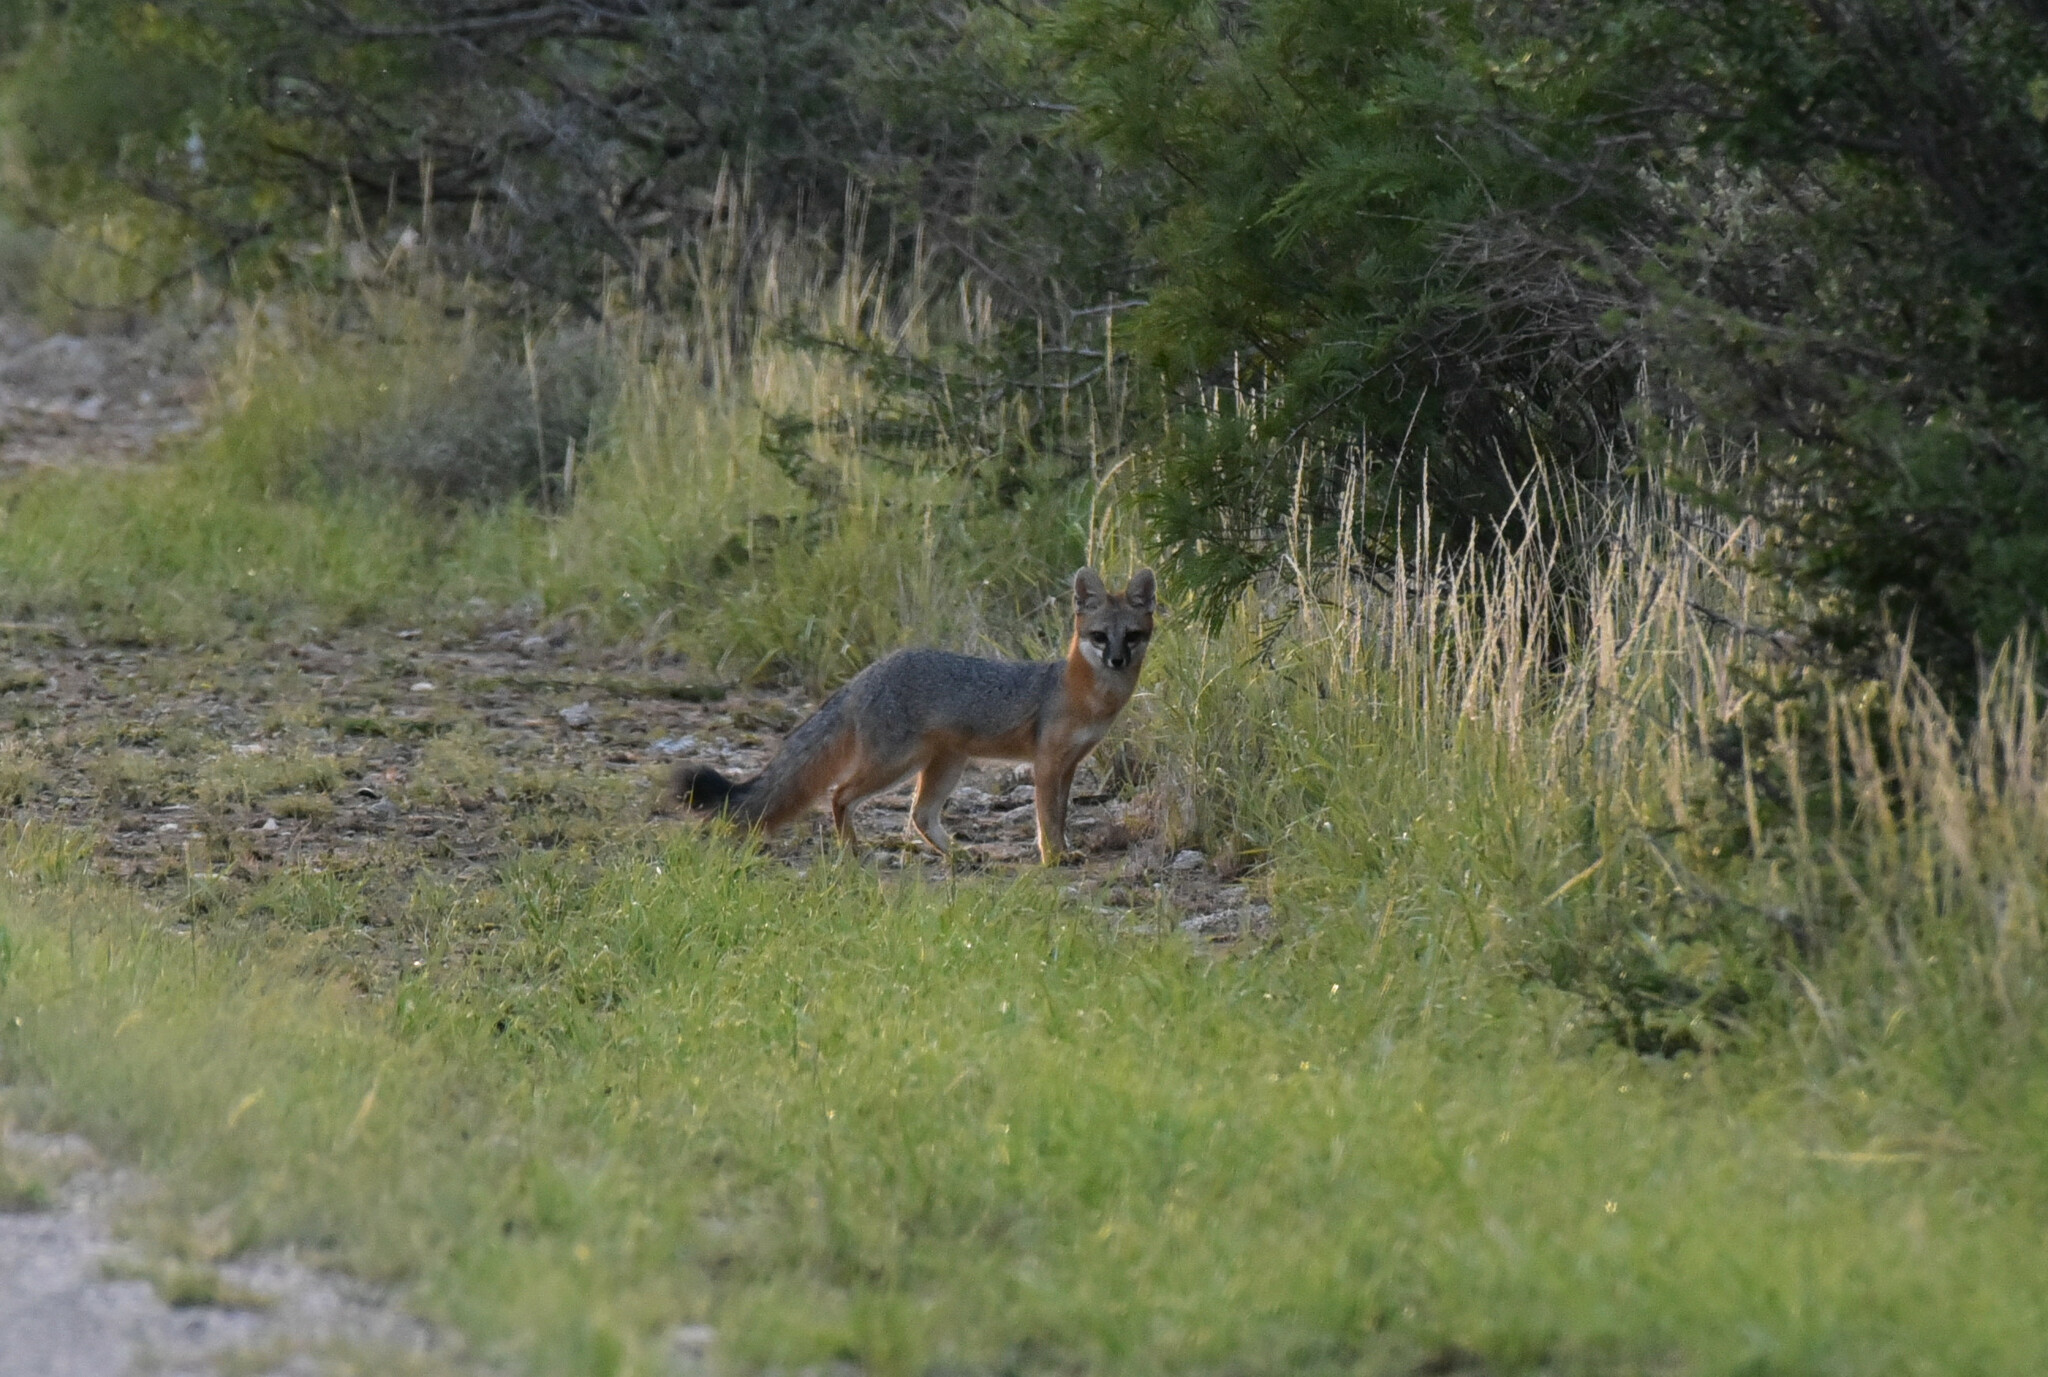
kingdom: Animalia
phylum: Chordata
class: Mammalia
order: Carnivora
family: Canidae
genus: Urocyon
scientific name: Urocyon cinereoargenteus
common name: Gray fox
